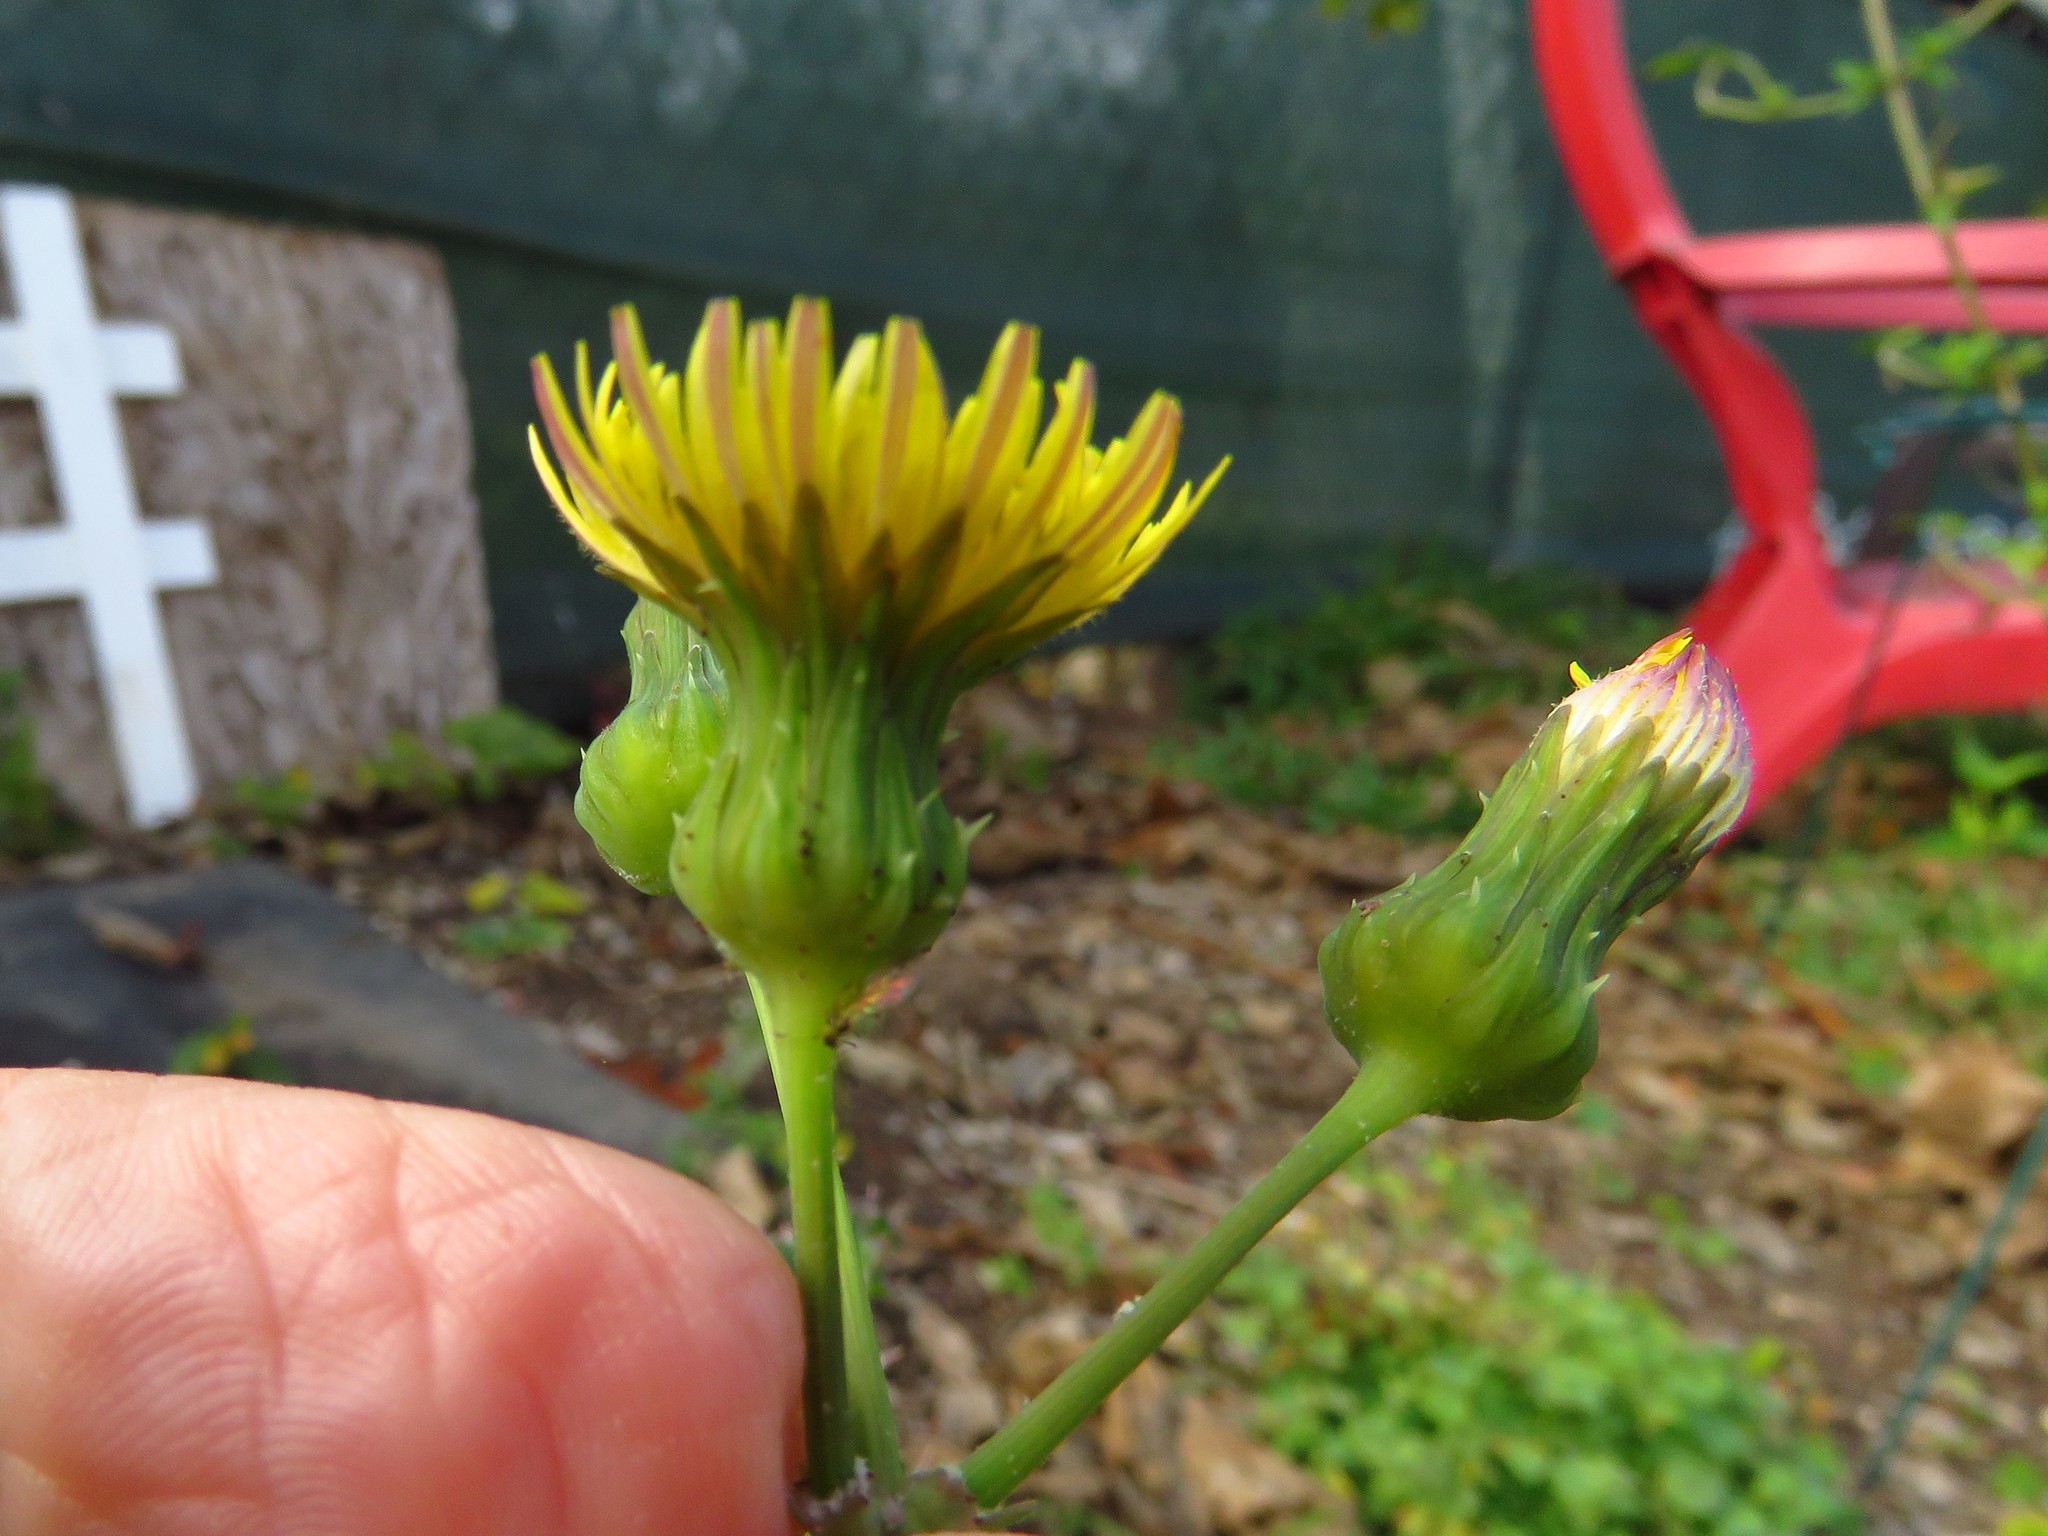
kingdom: Plantae
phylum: Tracheophyta
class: Magnoliopsida
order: Asterales
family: Asteraceae
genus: Sonchus
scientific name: Sonchus asper
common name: Prickly sow-thistle
